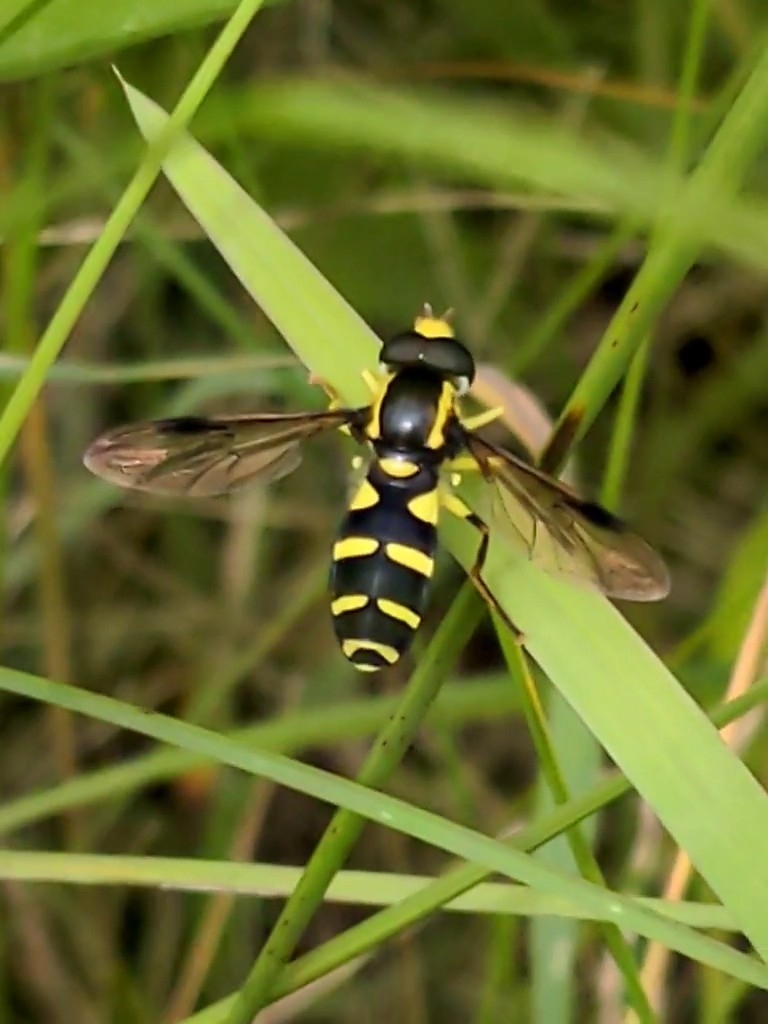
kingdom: Animalia
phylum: Arthropoda
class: Insecta
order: Diptera
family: Syrphidae
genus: Philhelius
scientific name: Philhelius pedissequum
